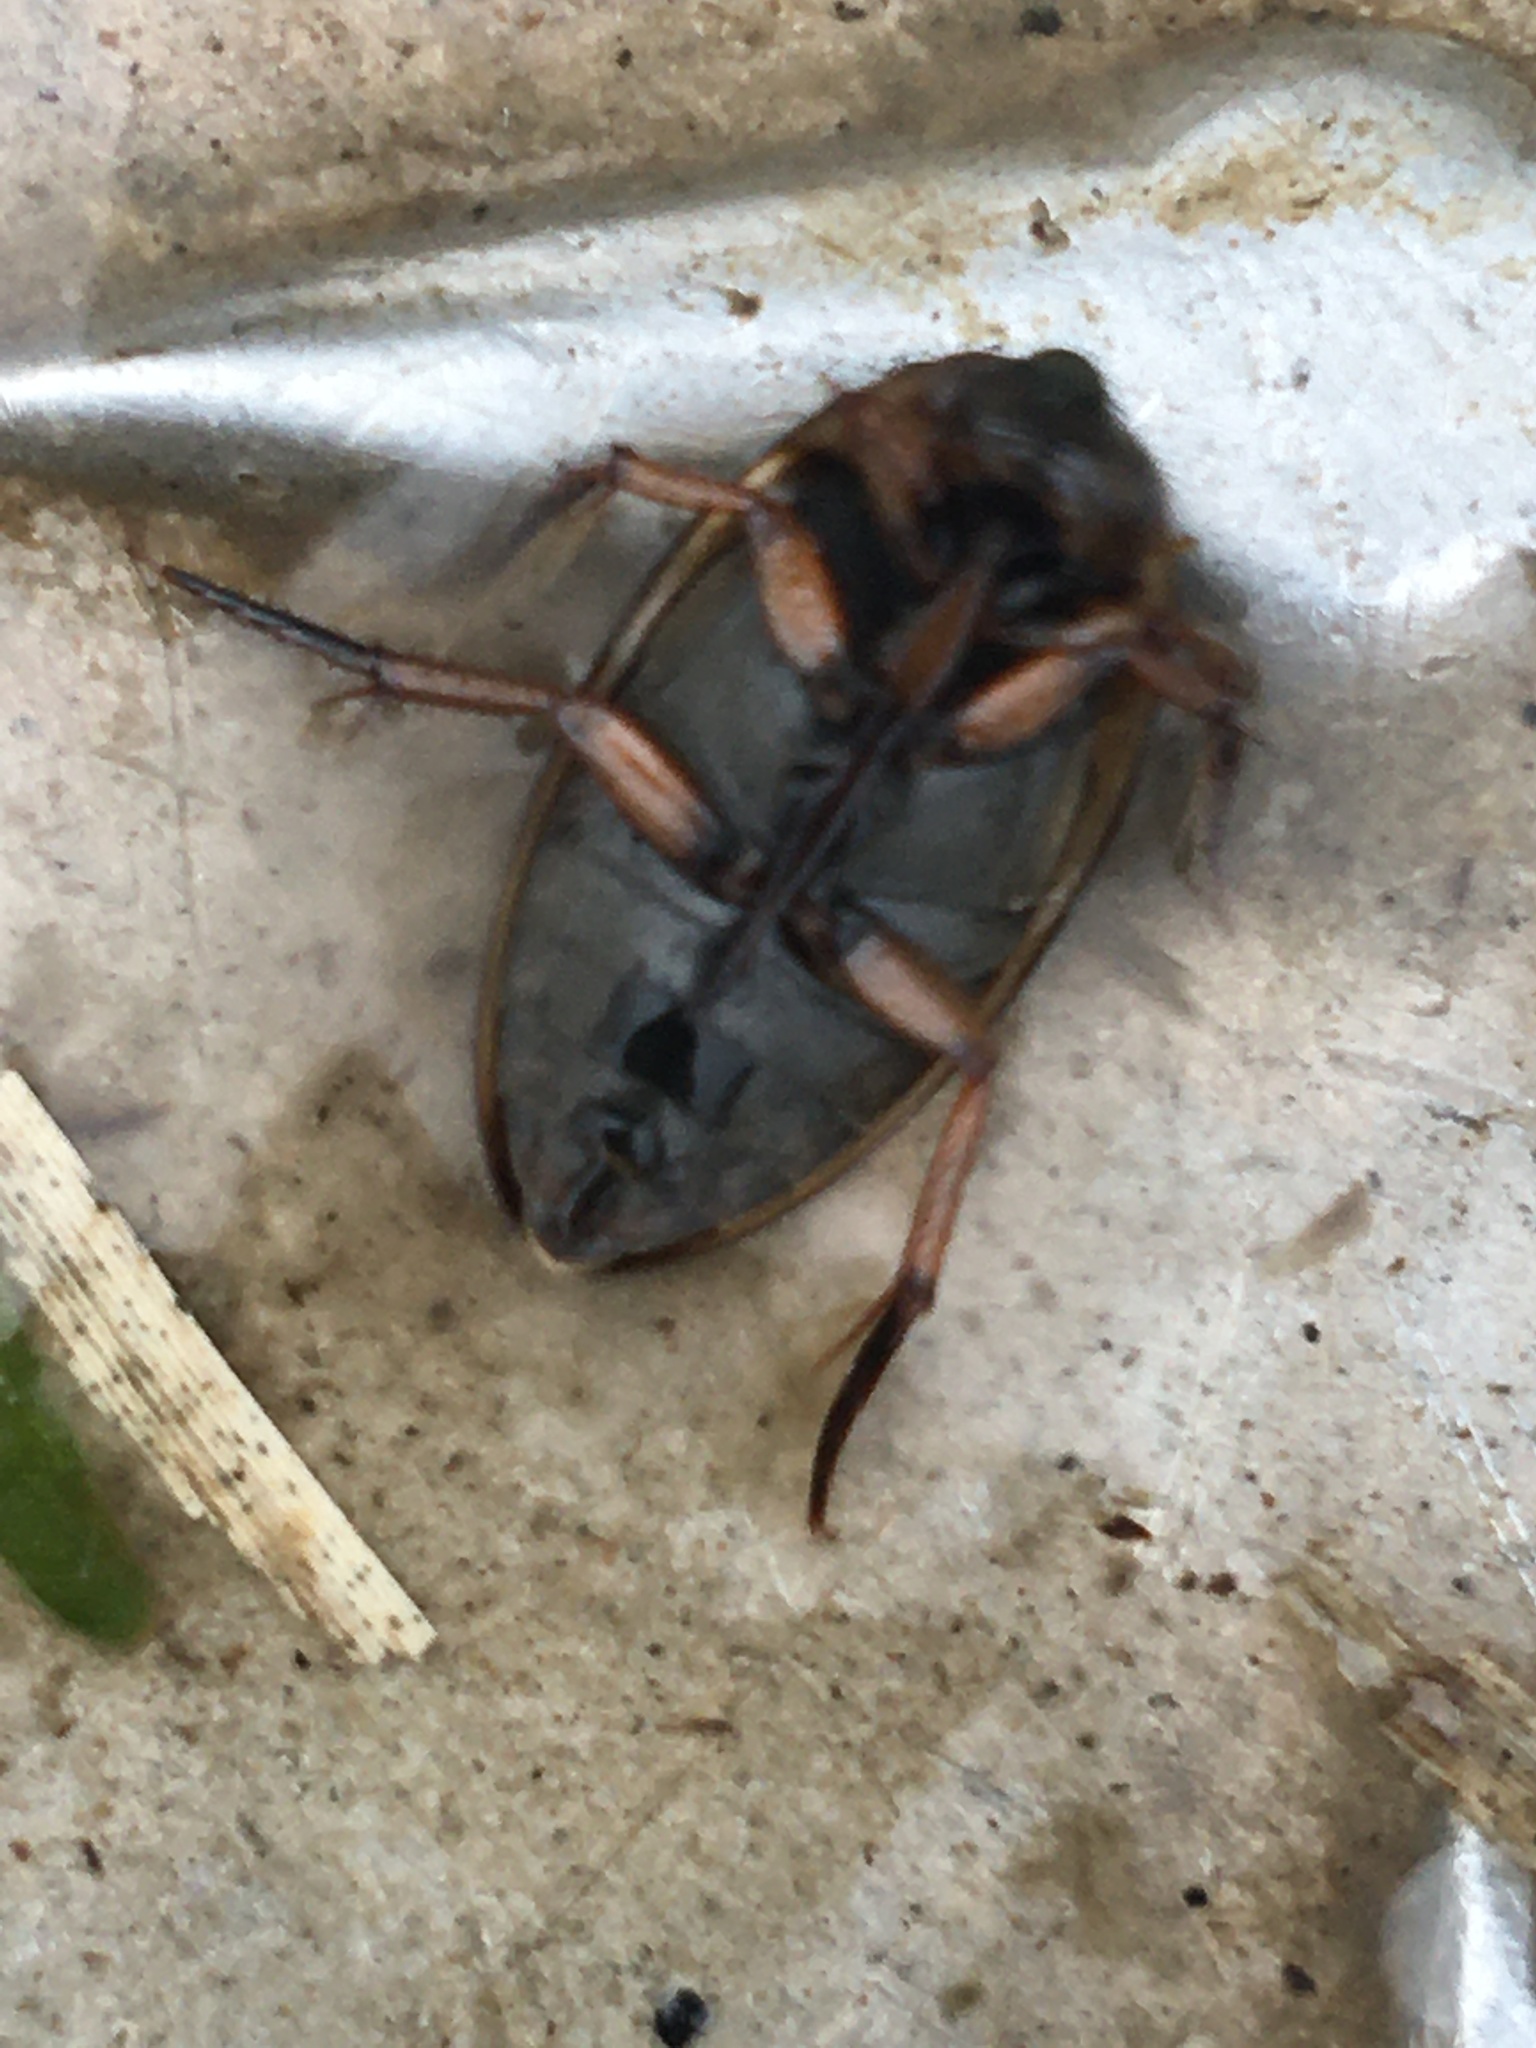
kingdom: Animalia
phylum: Arthropoda
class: Insecta
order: Coleoptera
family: Hydrophilidae
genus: Tropisternus
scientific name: Tropisternus lateralis
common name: Lateral-banded water scavenger beetle
